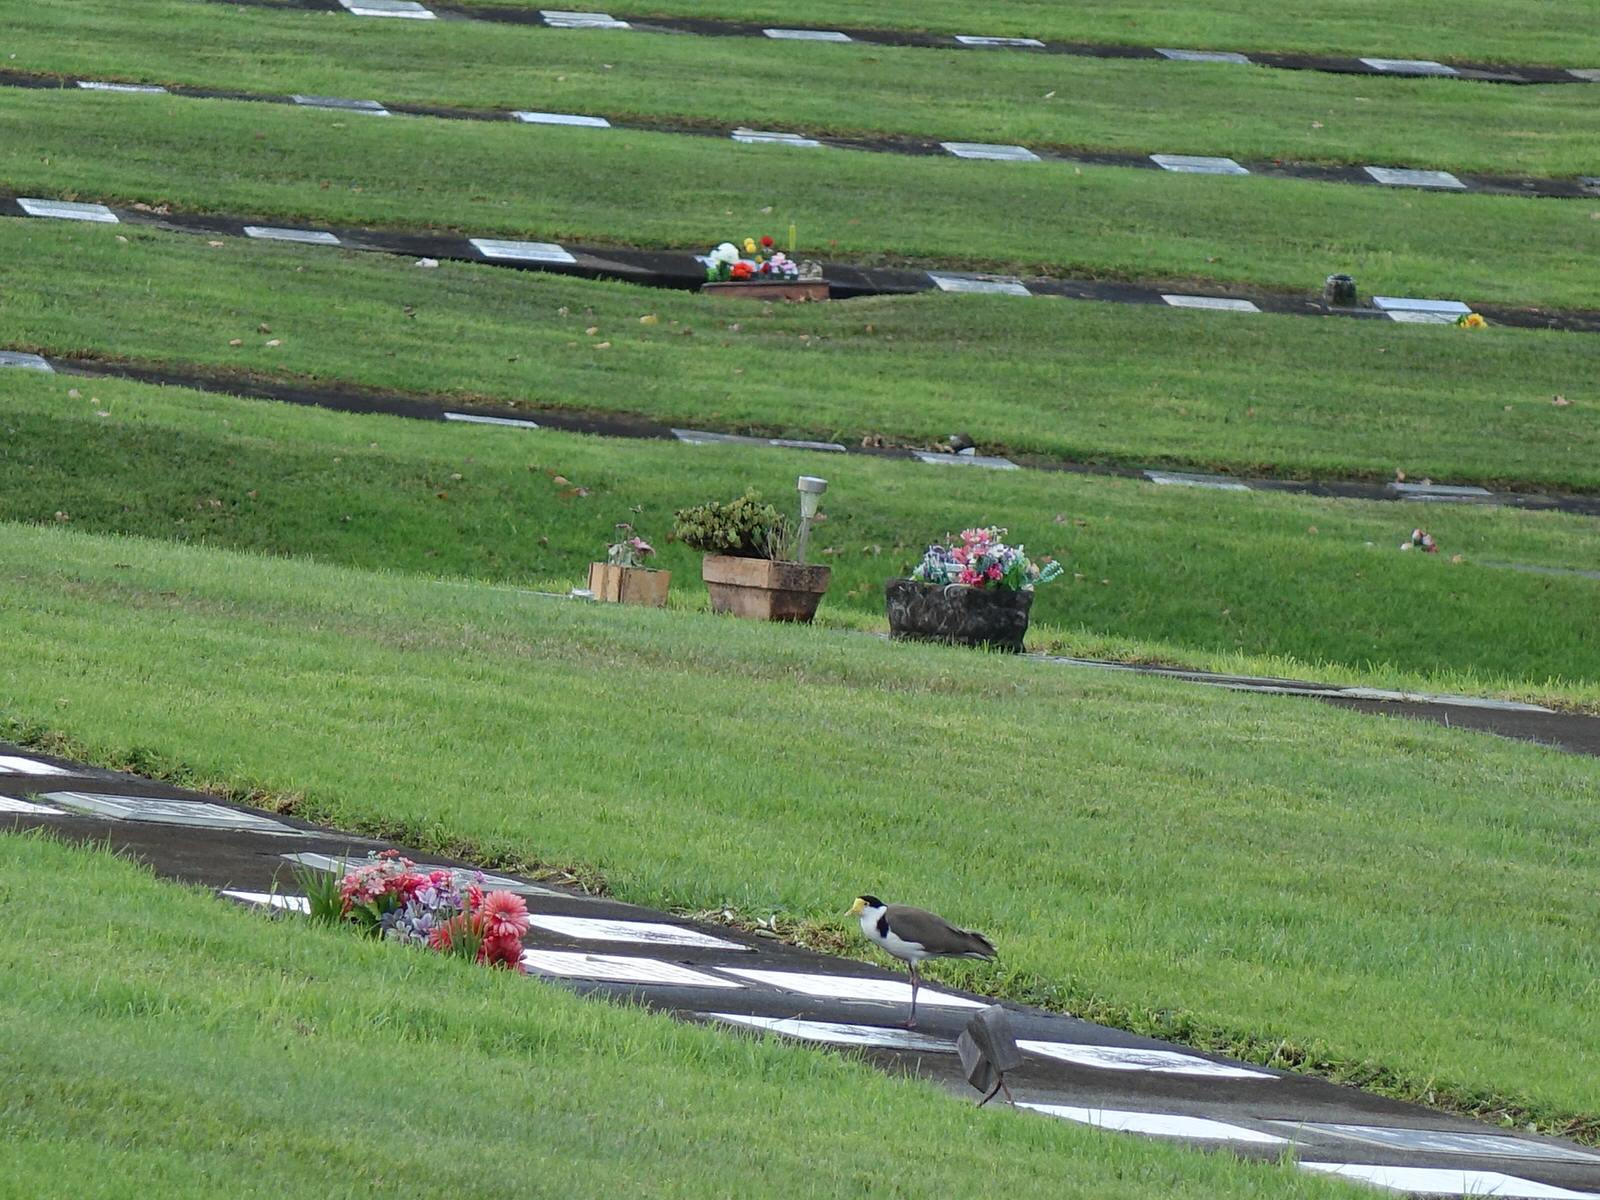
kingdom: Animalia
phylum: Chordata
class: Aves
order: Charadriiformes
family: Charadriidae
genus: Vanellus
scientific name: Vanellus miles
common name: Masked lapwing
